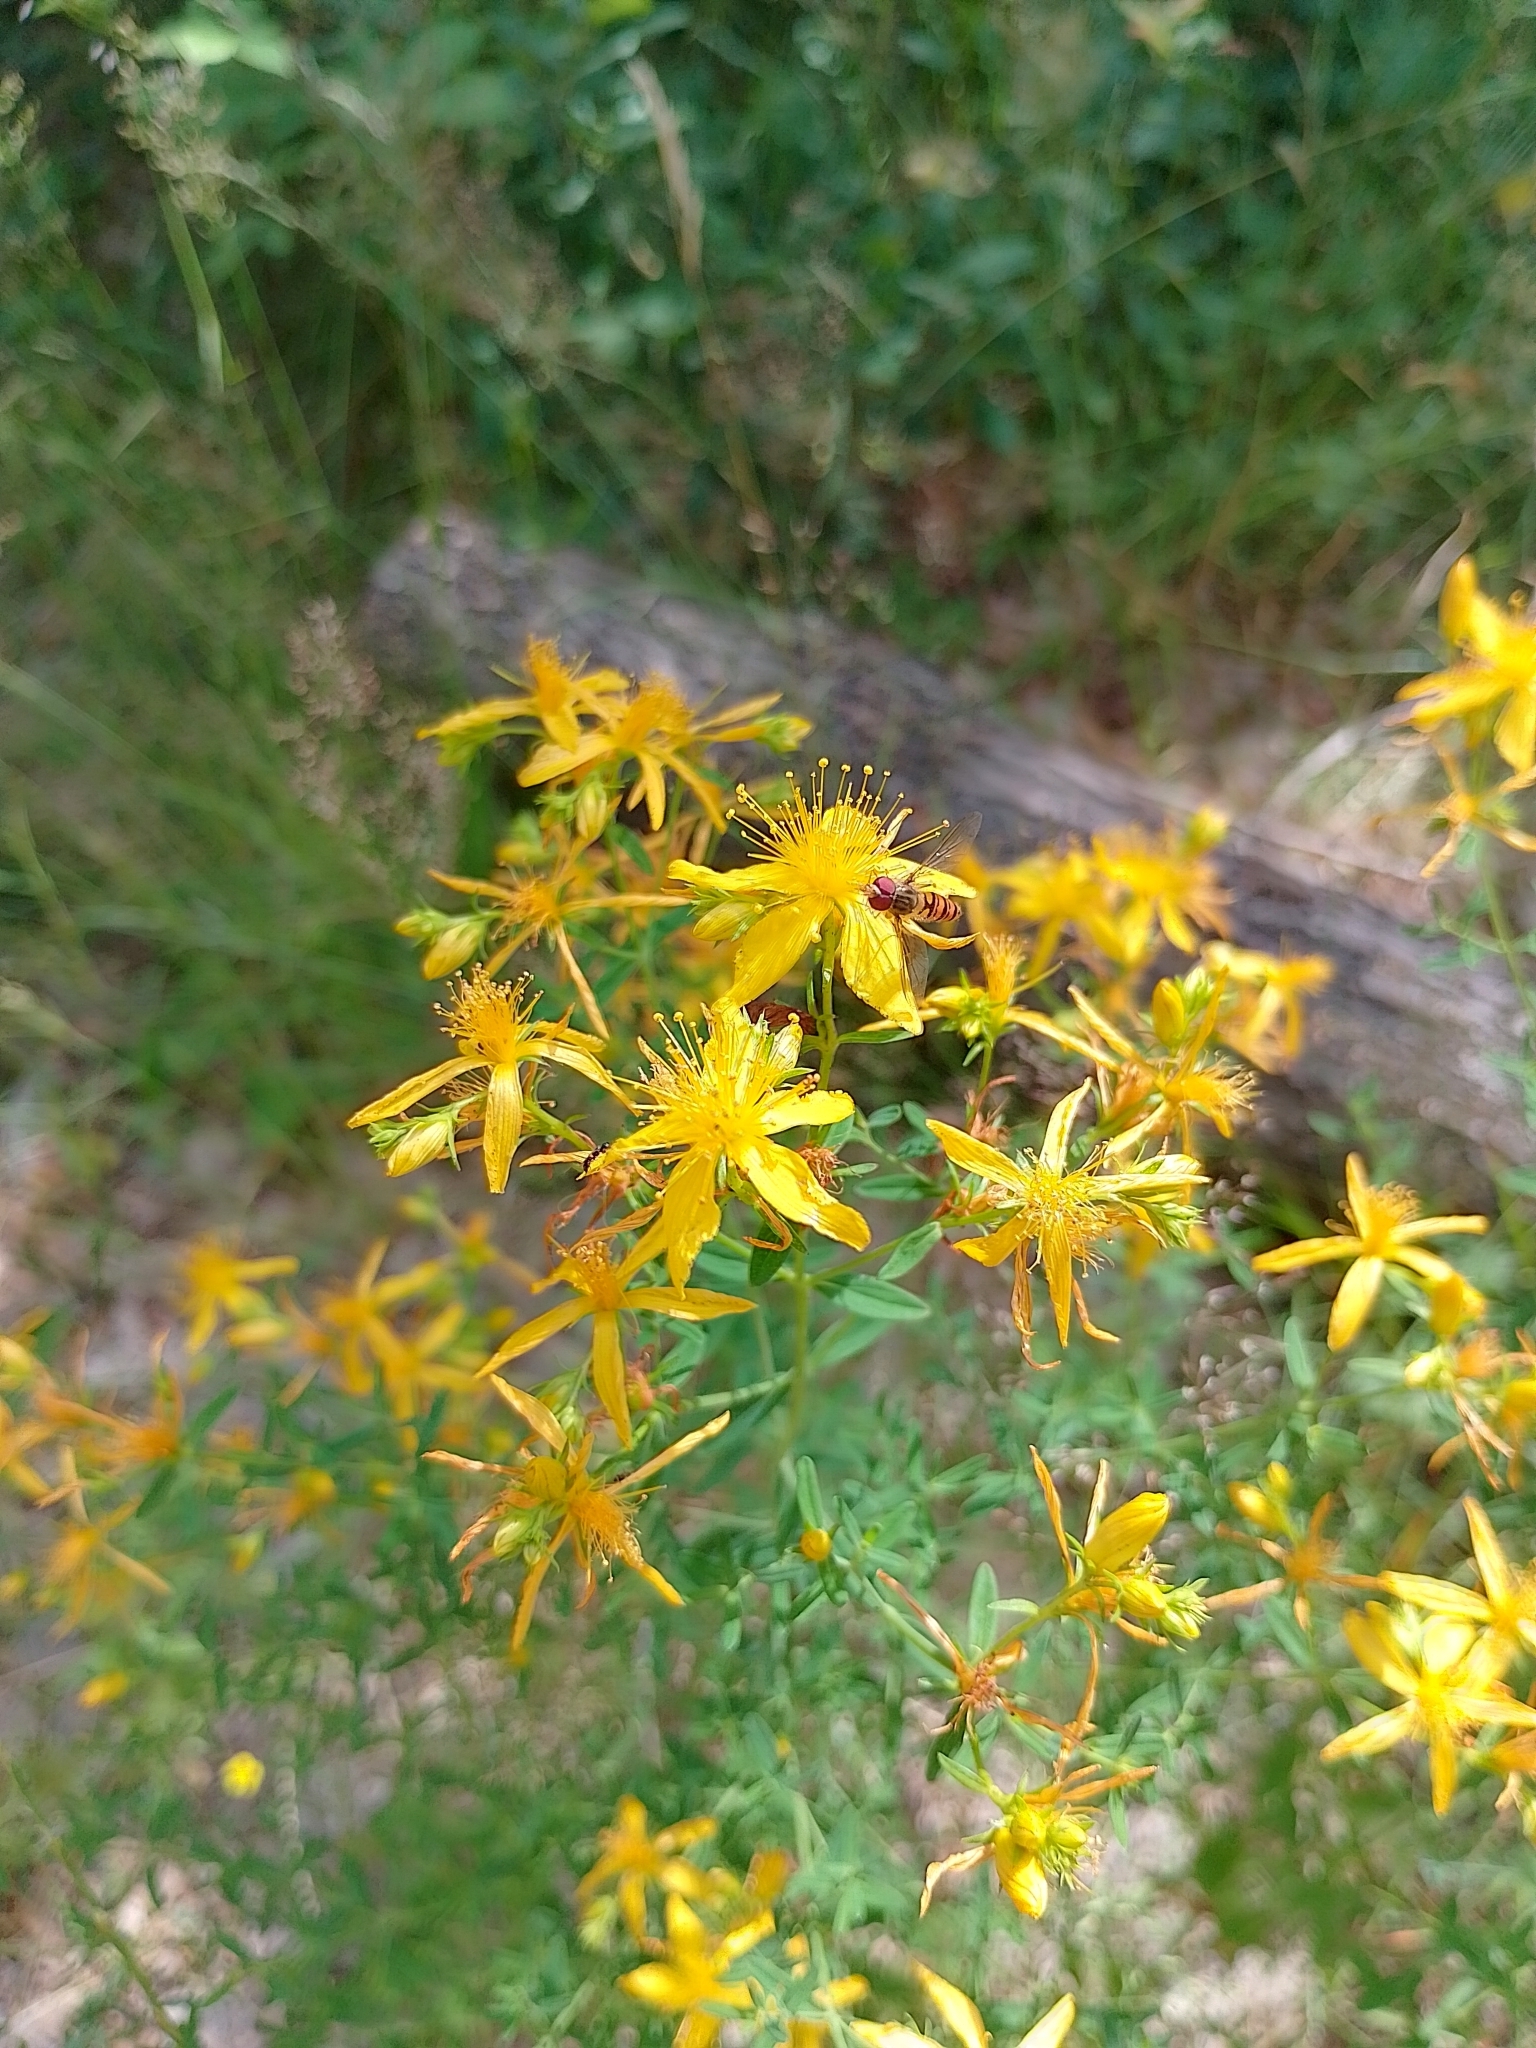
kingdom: Plantae
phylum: Tracheophyta
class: Magnoliopsida
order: Malpighiales
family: Hypericaceae
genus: Hypericum
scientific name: Hypericum perforatum
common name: Common st. johnswort
